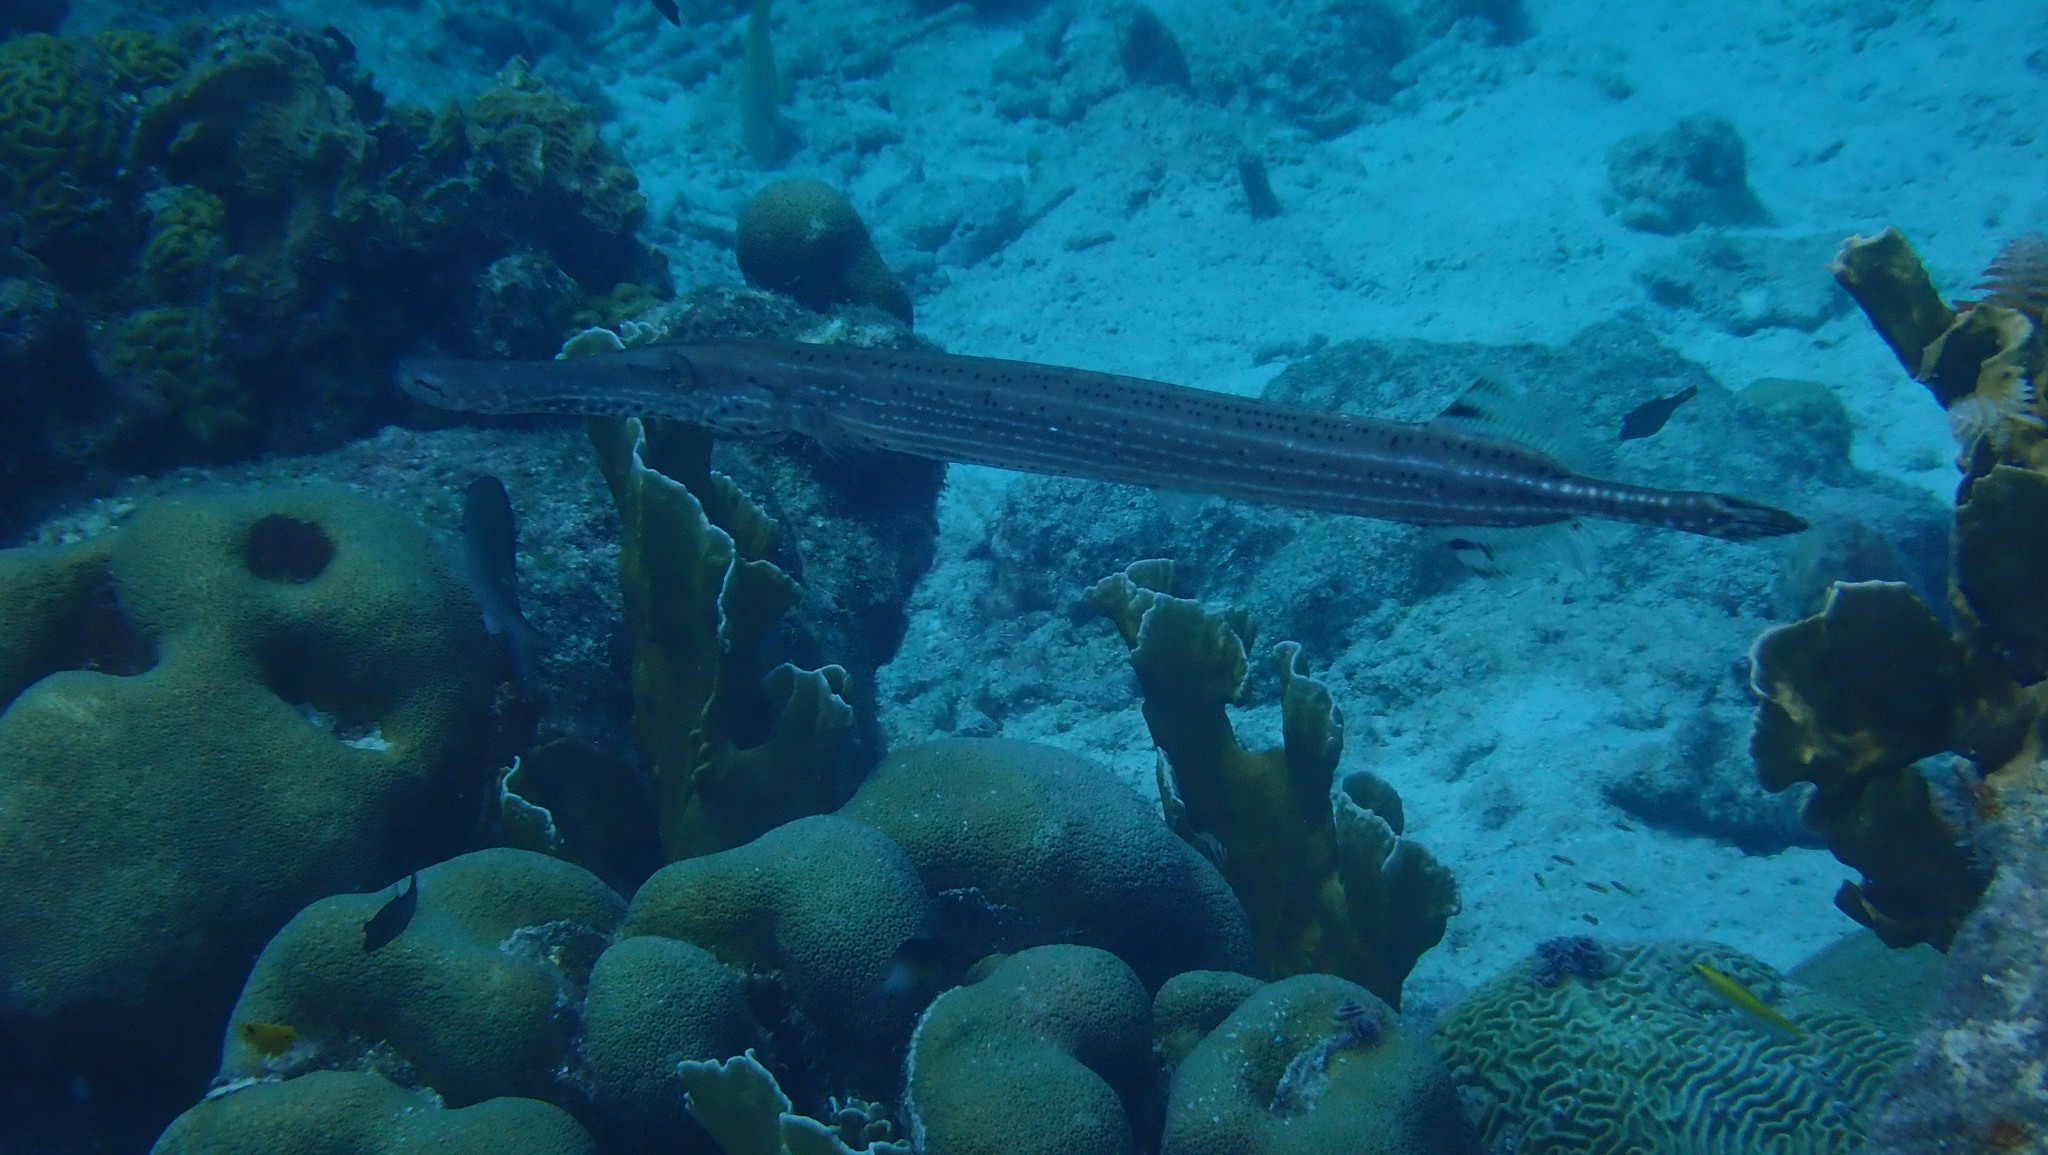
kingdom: Animalia
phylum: Chordata
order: Syngnathiformes
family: Aulostomidae
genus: Aulostomus
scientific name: Aulostomus maculatus
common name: West atlantic trumpetfish
